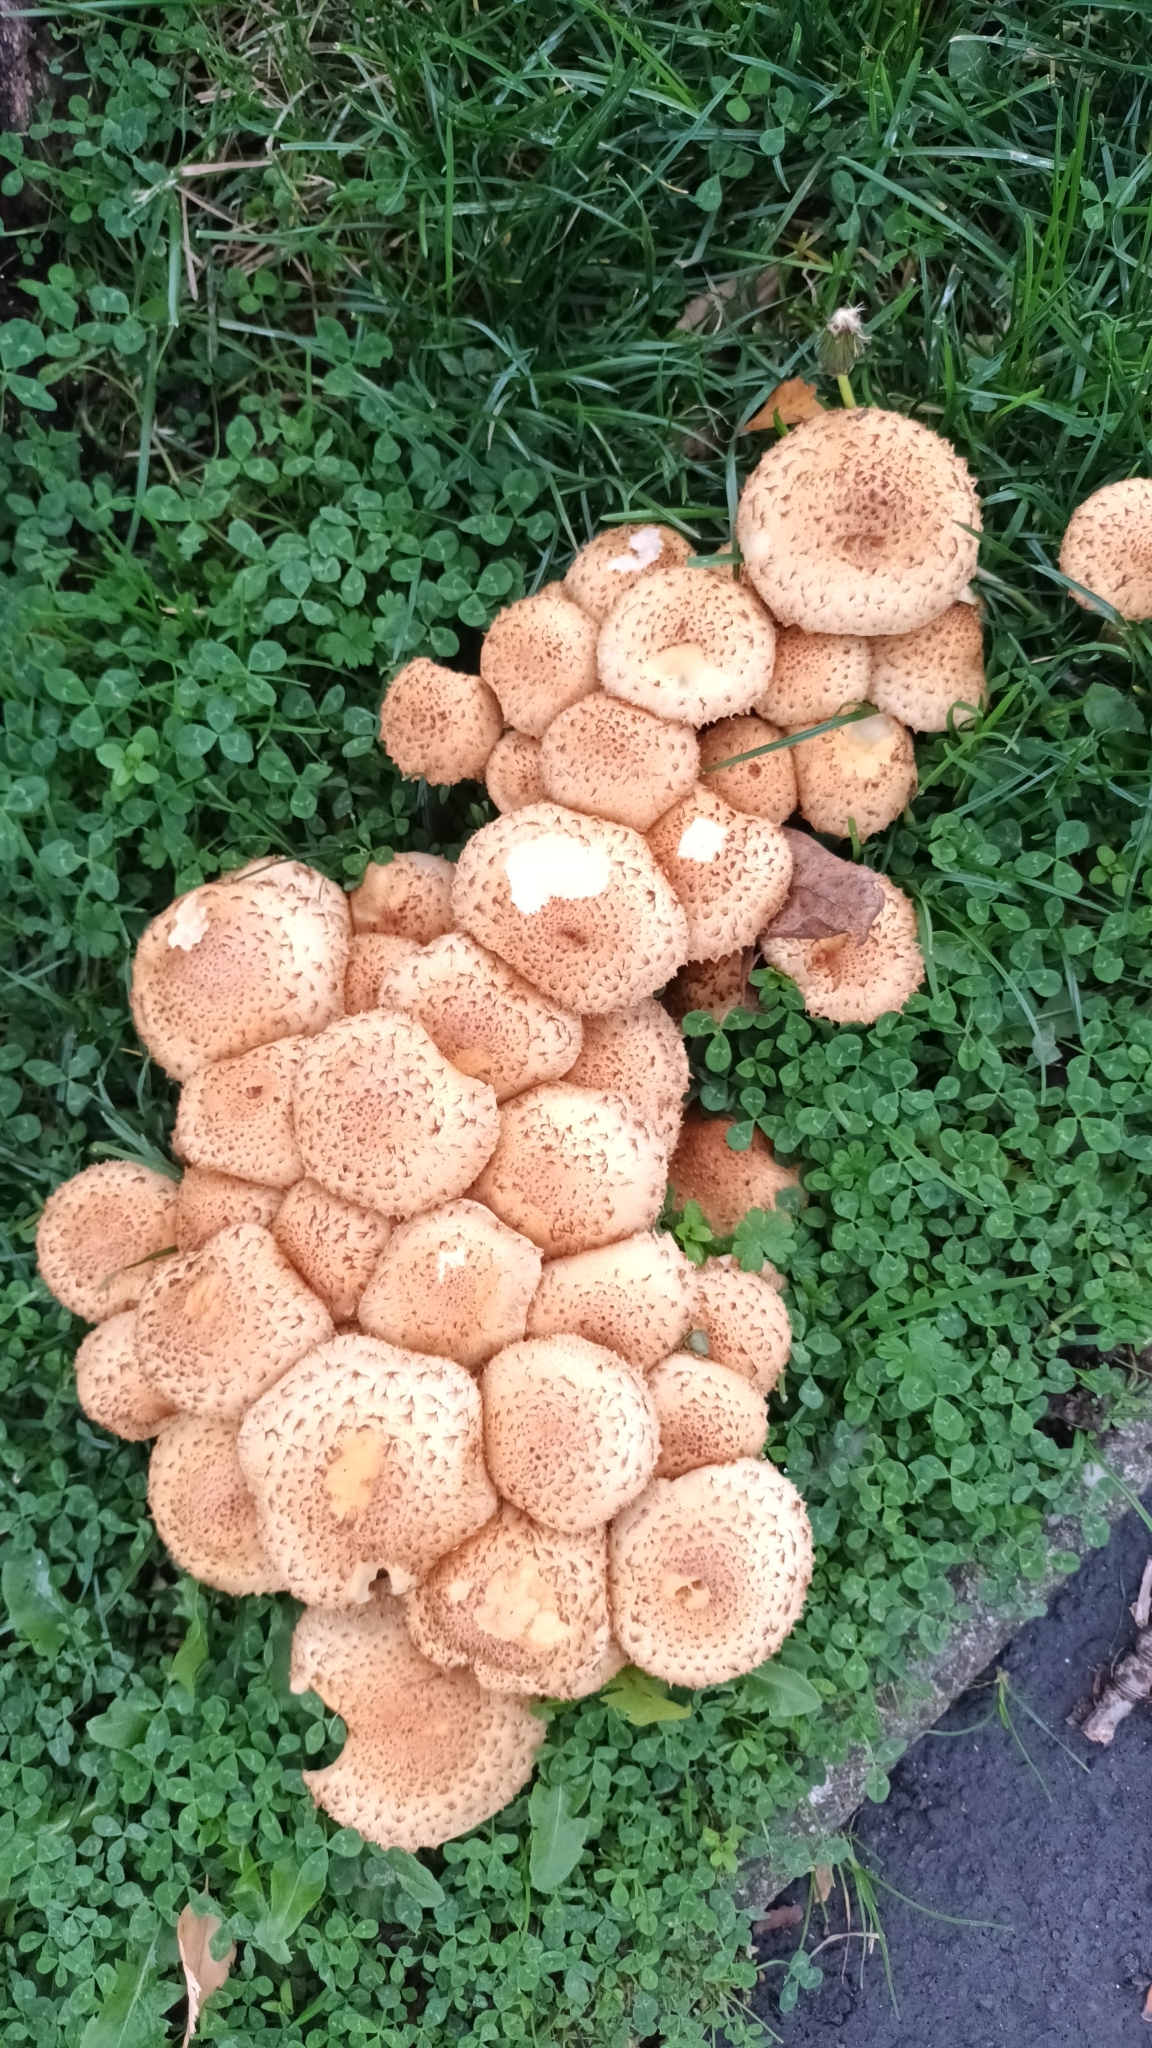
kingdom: Fungi
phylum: Basidiomycota
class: Agaricomycetes
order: Agaricales
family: Strophariaceae
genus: Pholiota
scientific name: Pholiota squarrosa
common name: Shaggy pholiota
